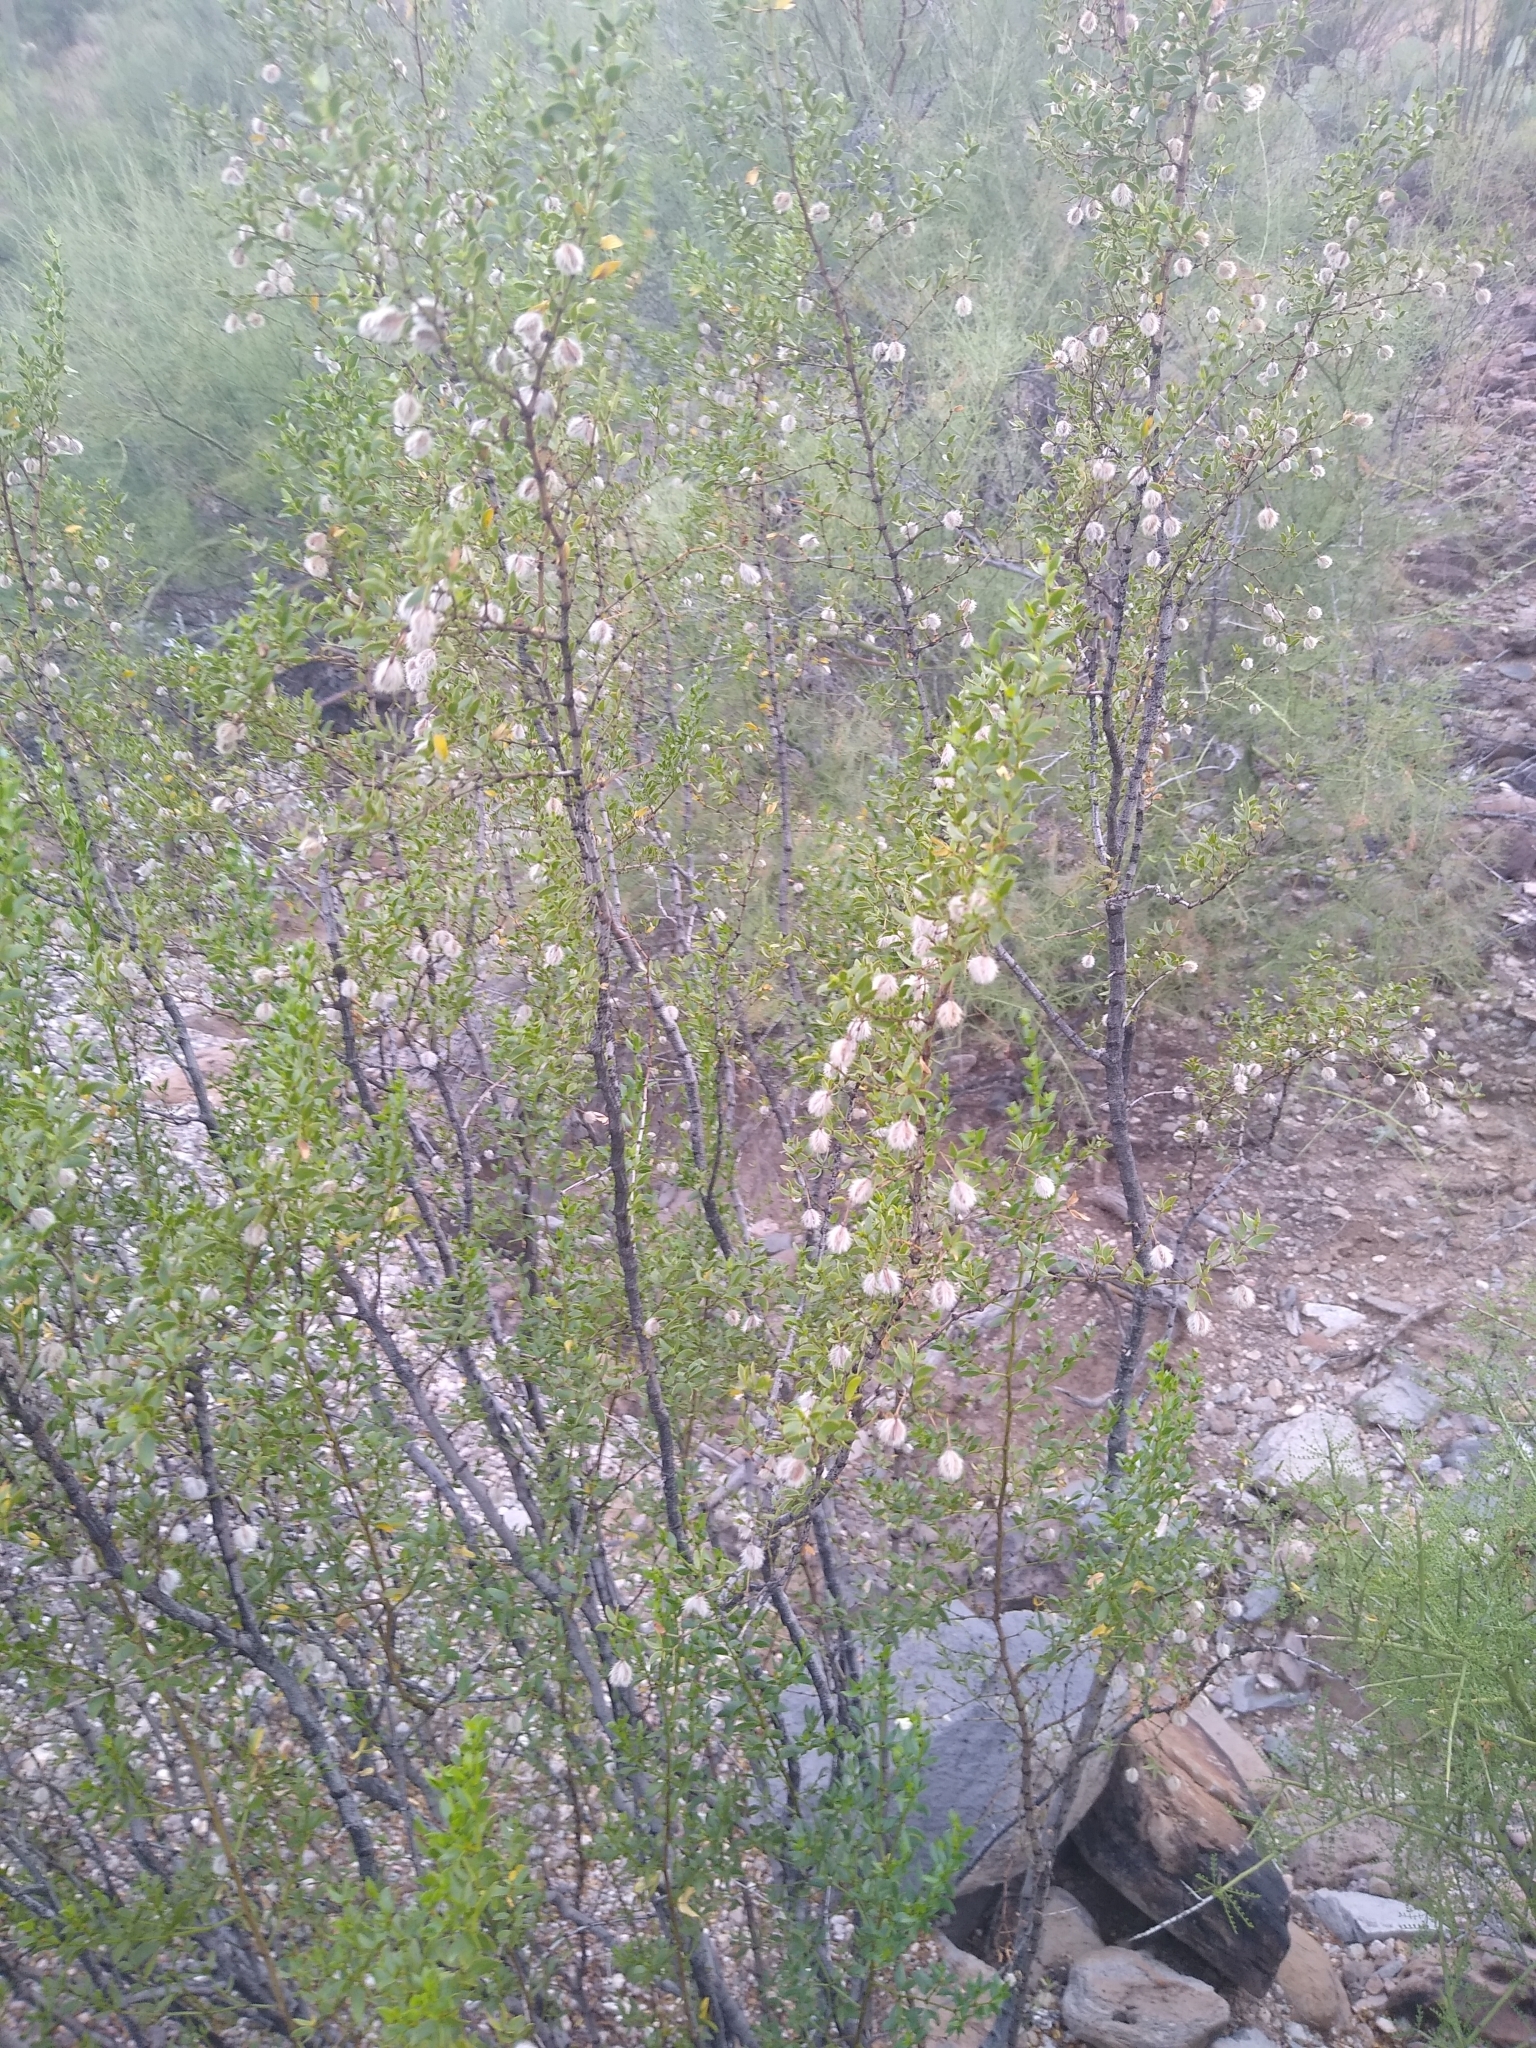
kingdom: Plantae
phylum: Tracheophyta
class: Magnoliopsida
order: Zygophyllales
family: Zygophyllaceae
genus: Larrea
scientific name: Larrea tridentata
